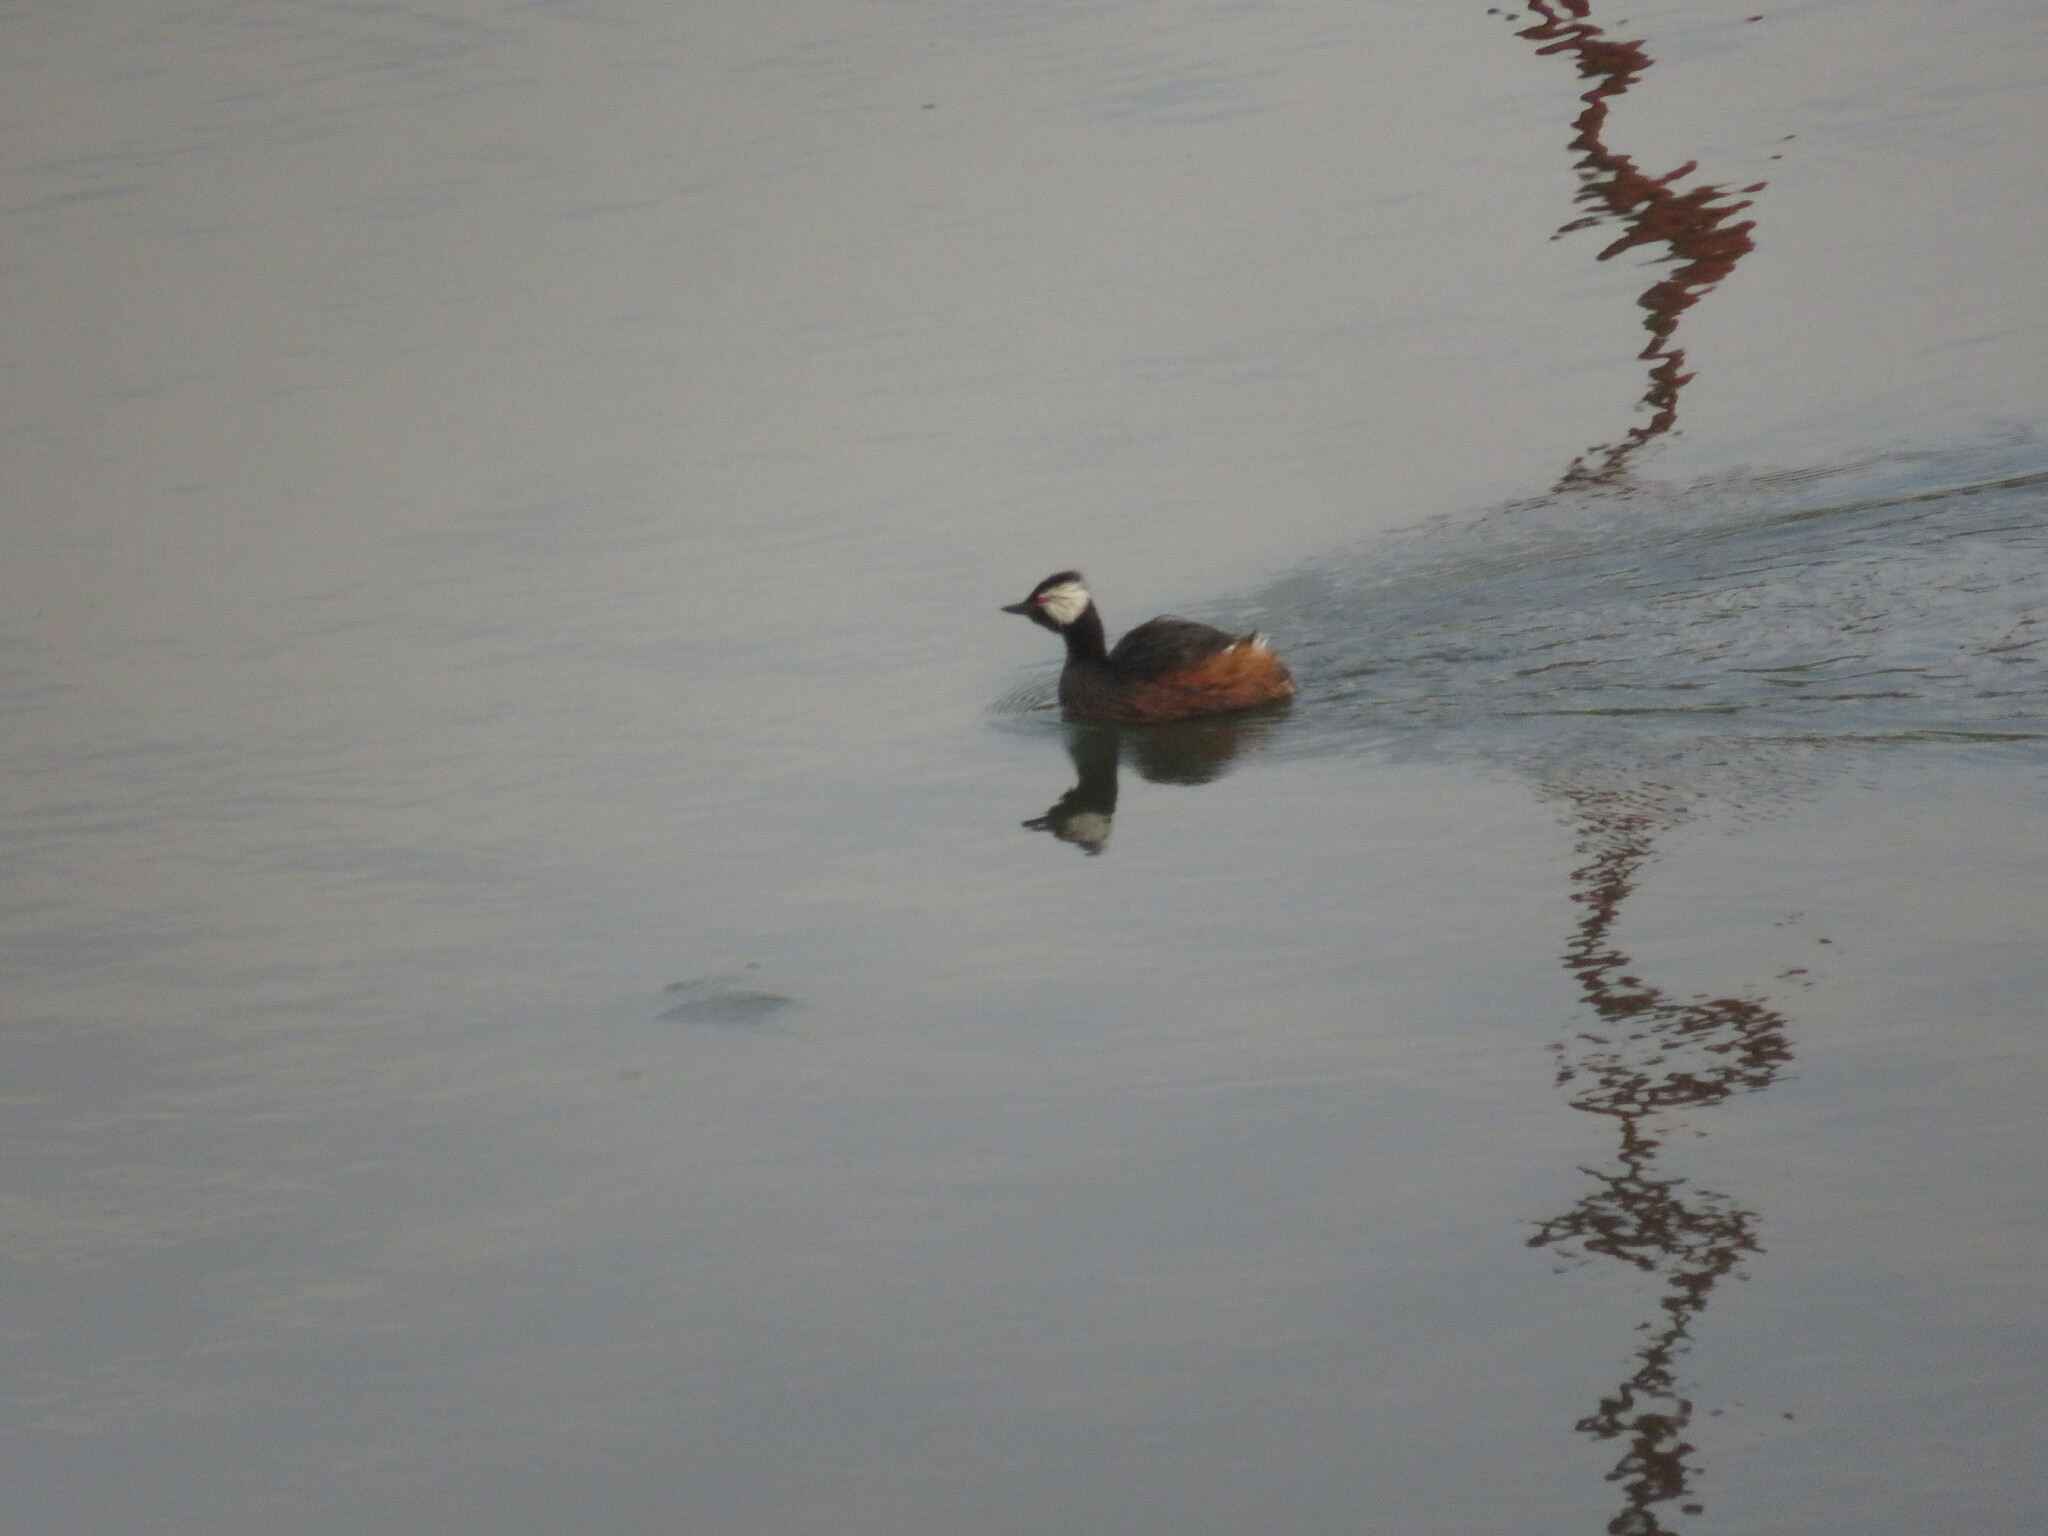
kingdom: Animalia
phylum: Chordata
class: Aves
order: Podicipediformes
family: Podicipedidae
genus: Rollandia
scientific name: Rollandia rolland
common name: White-tufted grebe
